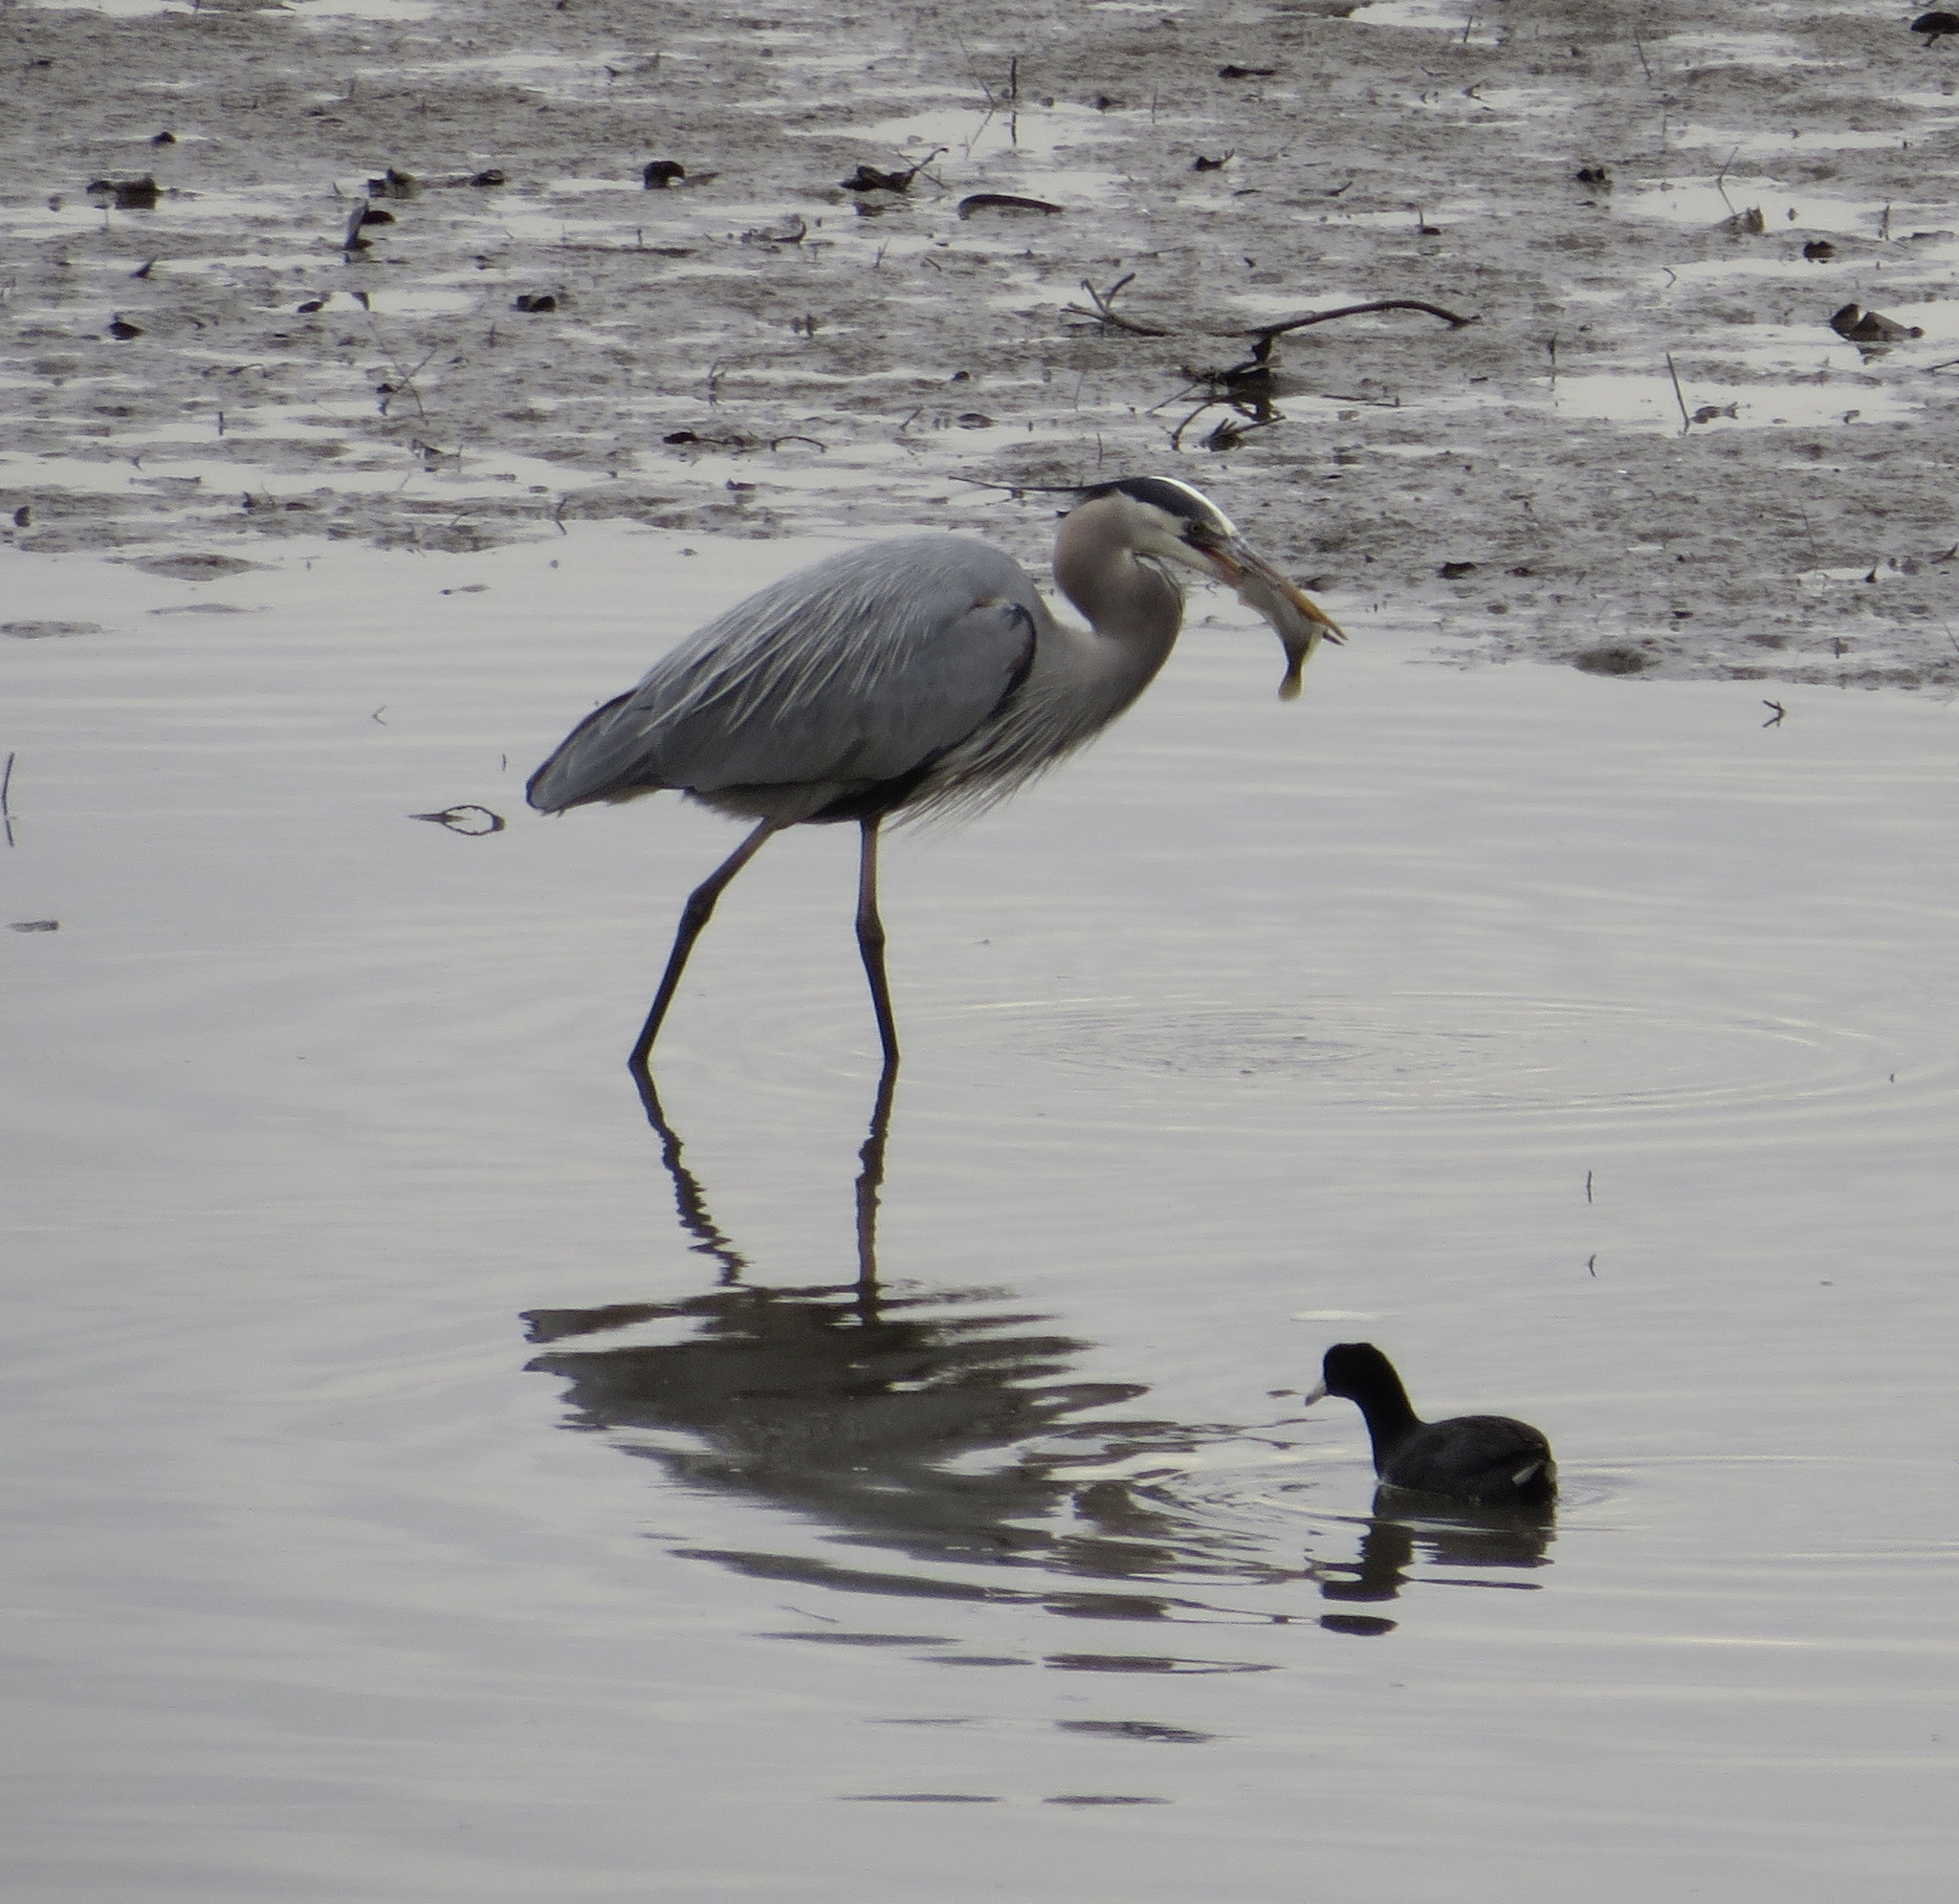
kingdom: Animalia
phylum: Chordata
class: Aves
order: Pelecaniformes
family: Ardeidae
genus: Ardea
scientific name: Ardea herodias
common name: Great blue heron
